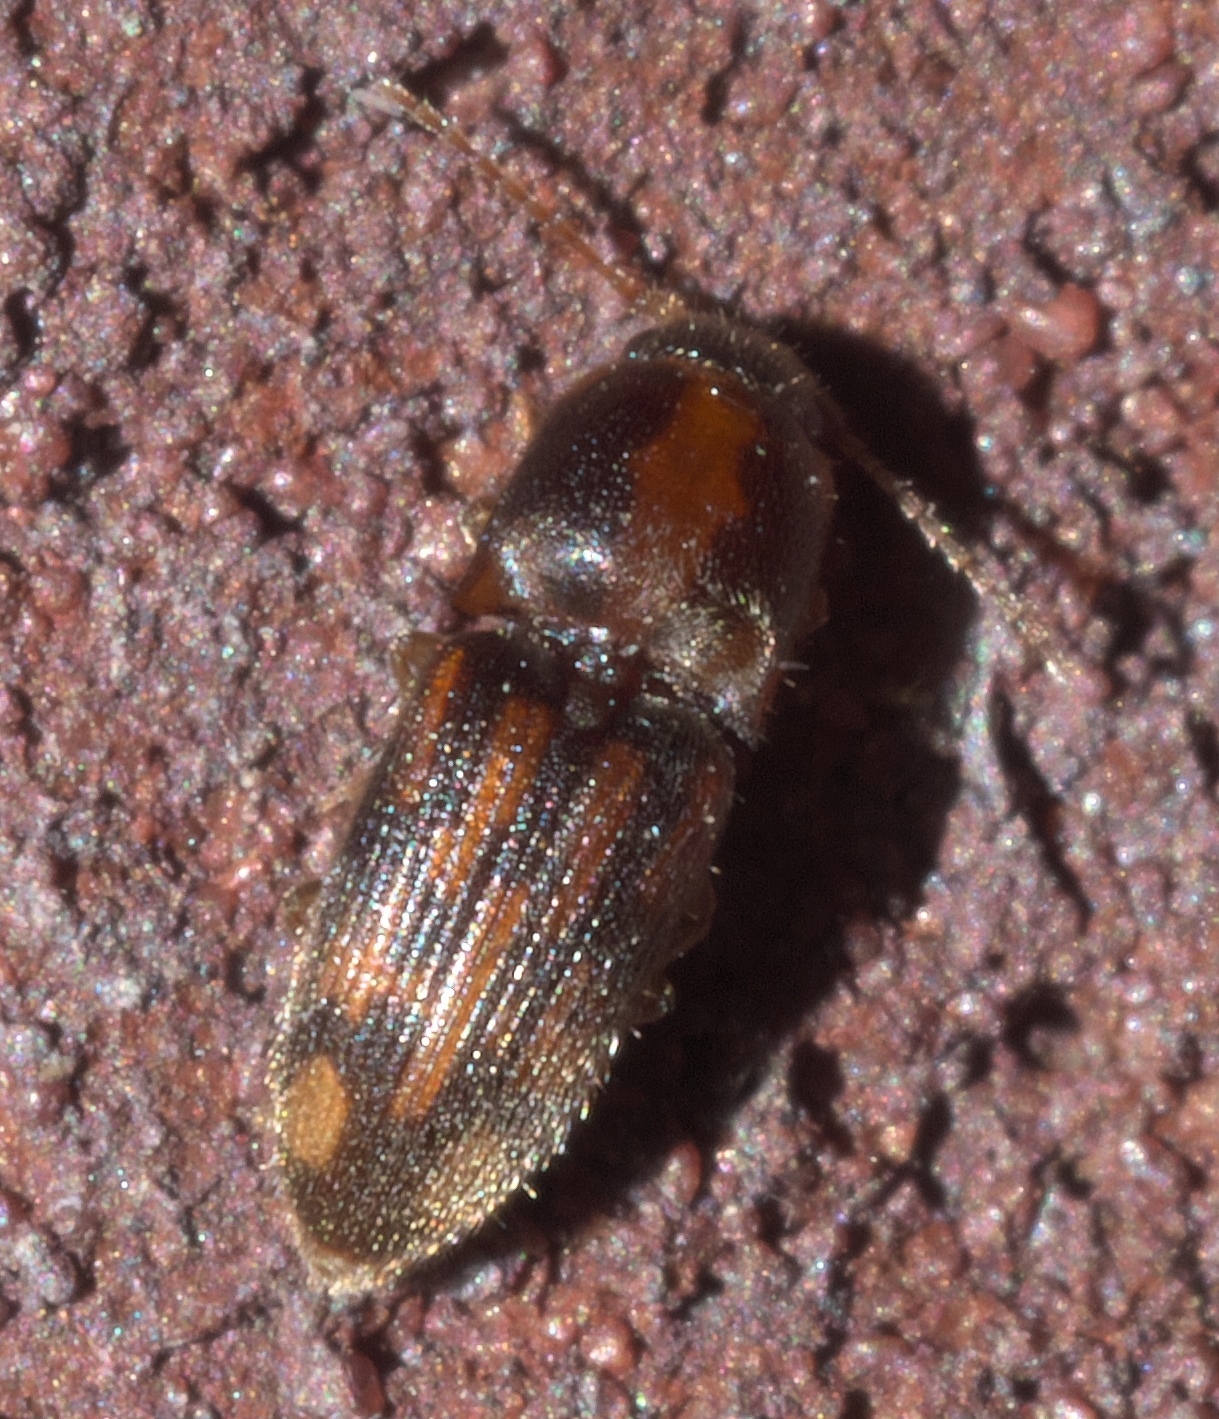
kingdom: Animalia
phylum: Arthropoda
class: Insecta
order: Coleoptera
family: Elateridae
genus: Monocrepidius
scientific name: Monocrepidius bellus
